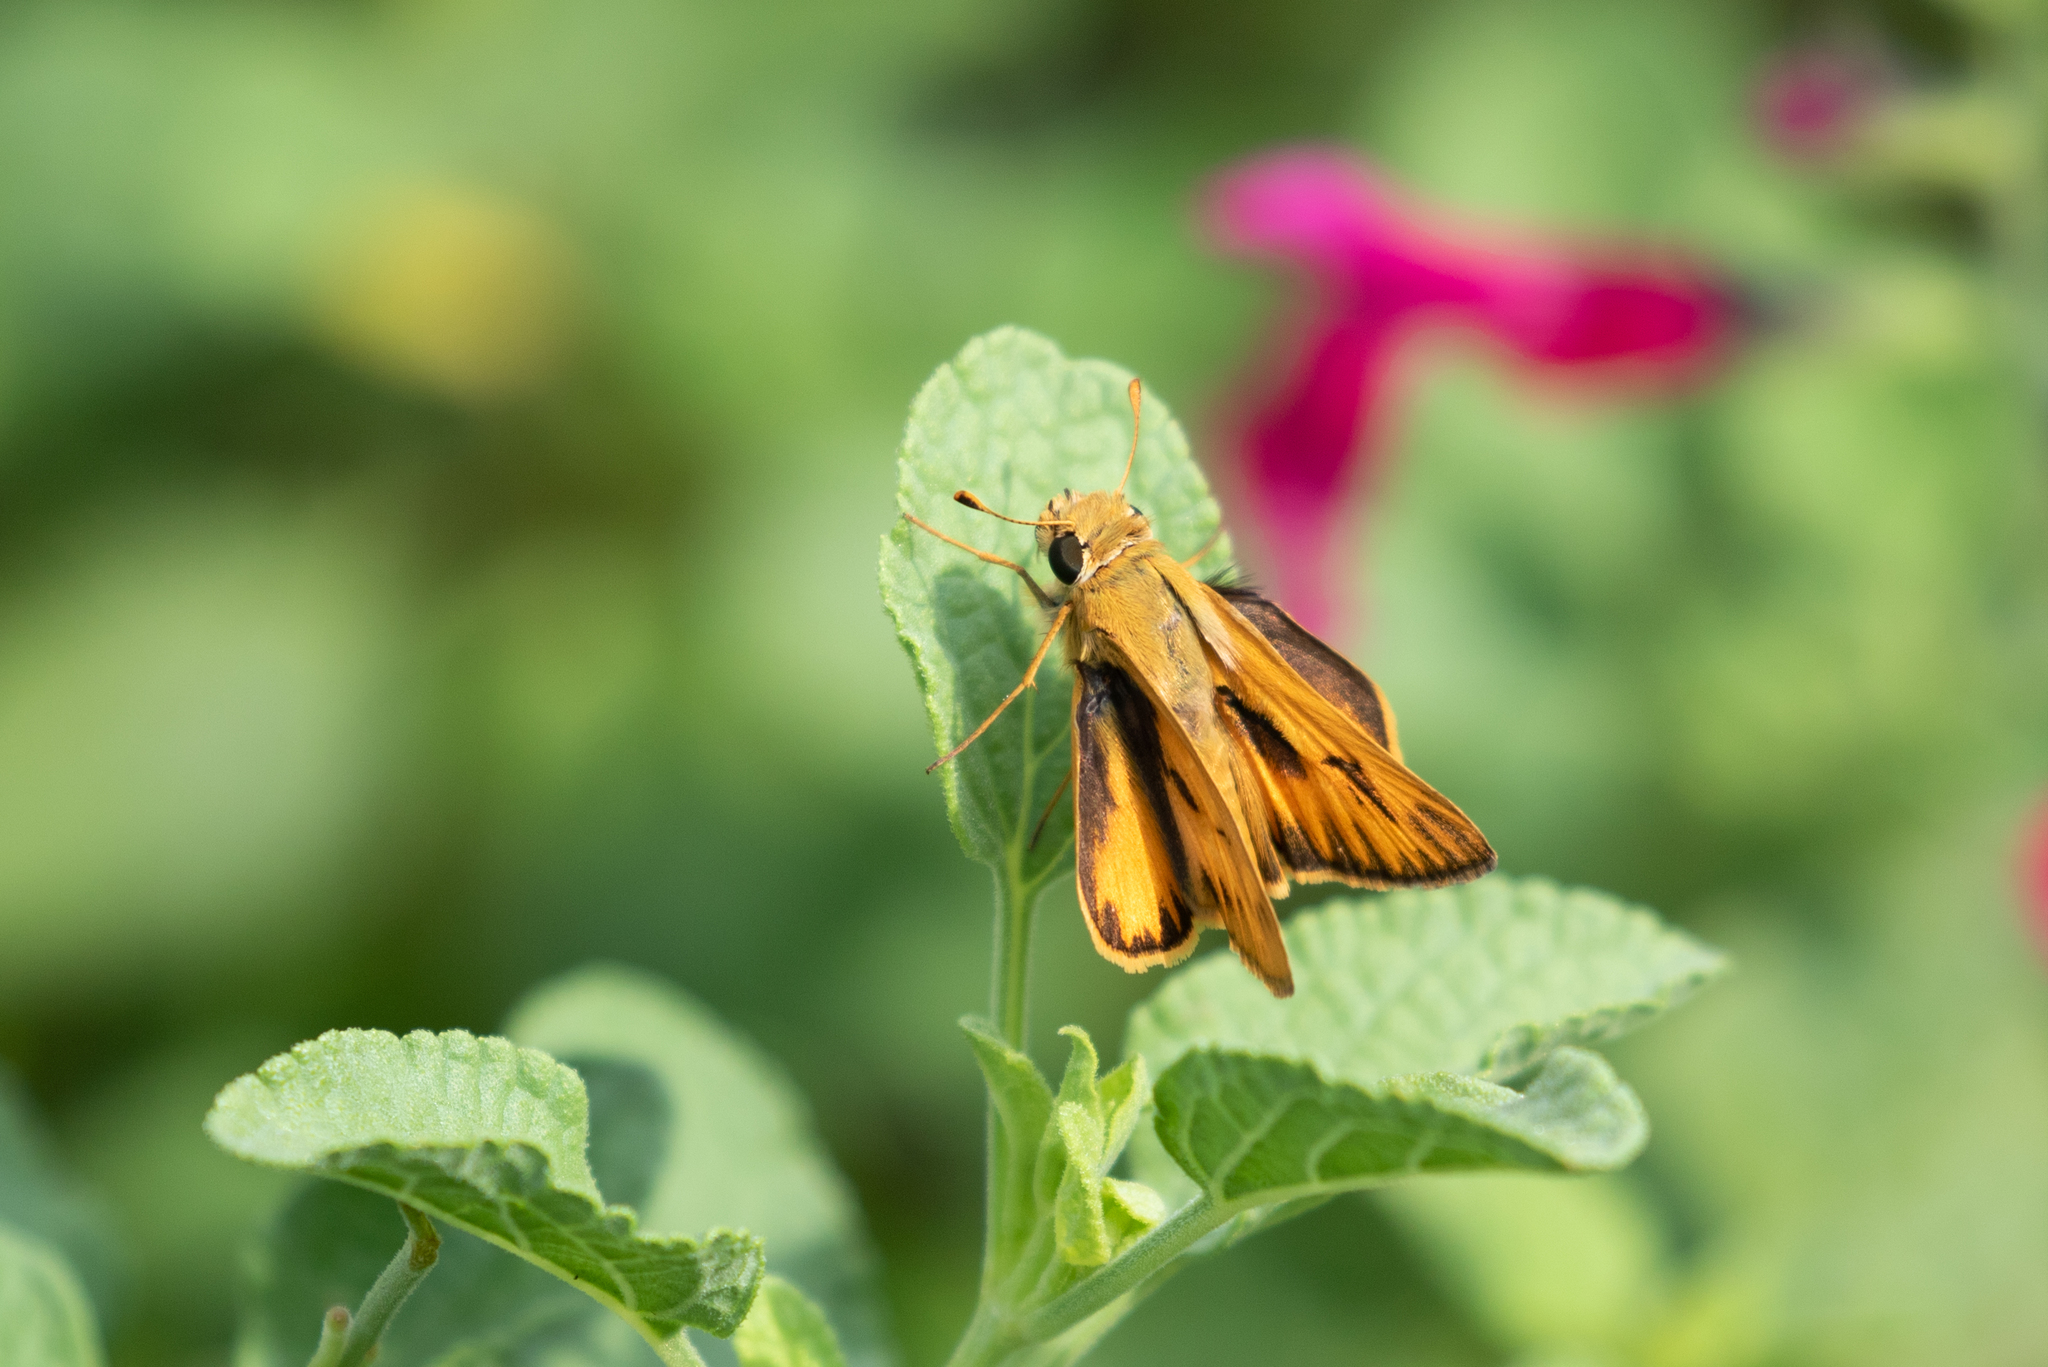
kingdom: Animalia
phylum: Arthropoda
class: Insecta
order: Lepidoptera
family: Hesperiidae
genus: Hylephila
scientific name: Hylephila phyleus
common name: Fiery skipper
